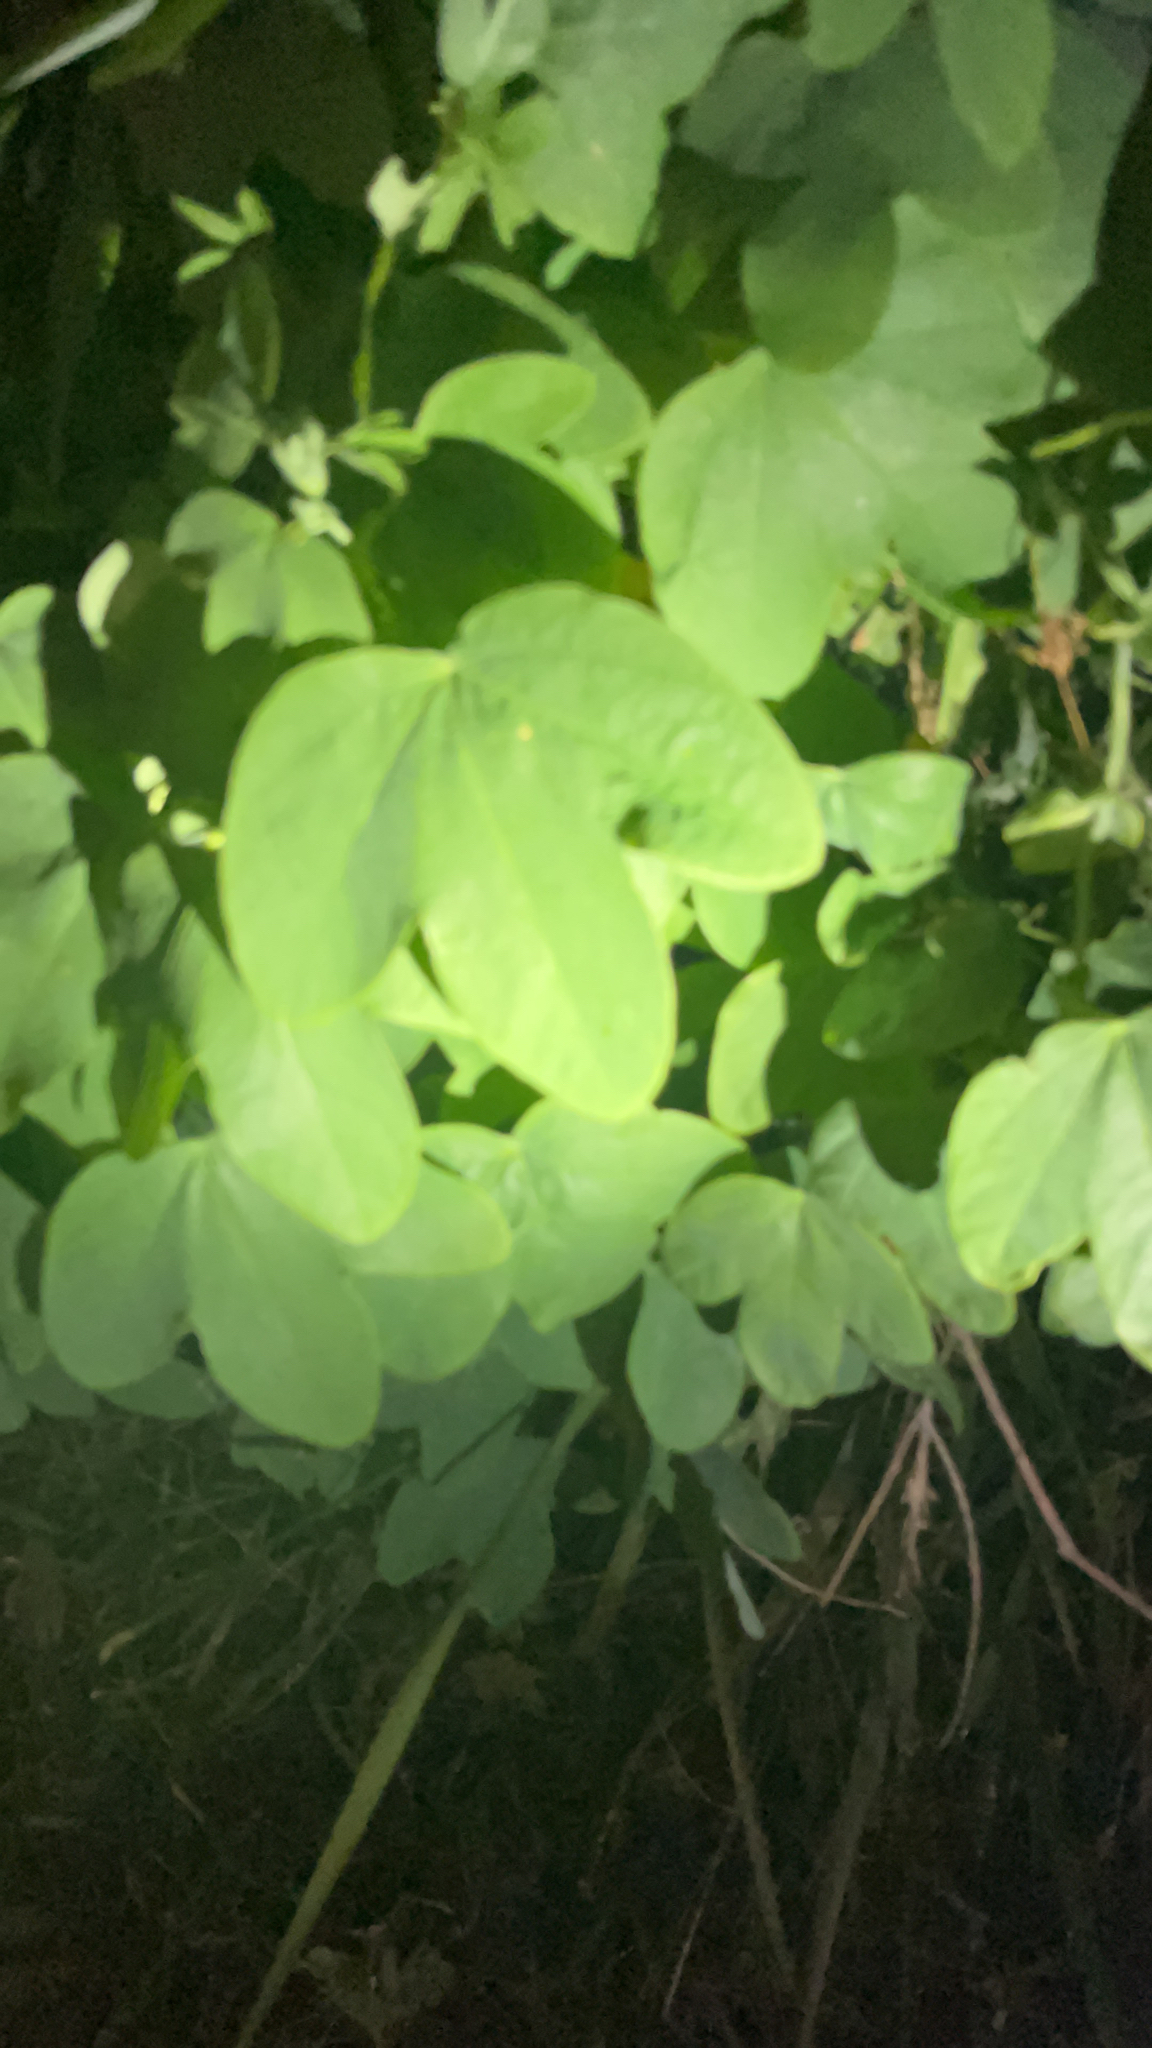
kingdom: Plantae
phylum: Tracheophyta
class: Magnoliopsida
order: Malpighiales
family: Passifloraceae
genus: Passiflora
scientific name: Passiflora subpeltata
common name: White passionflower
